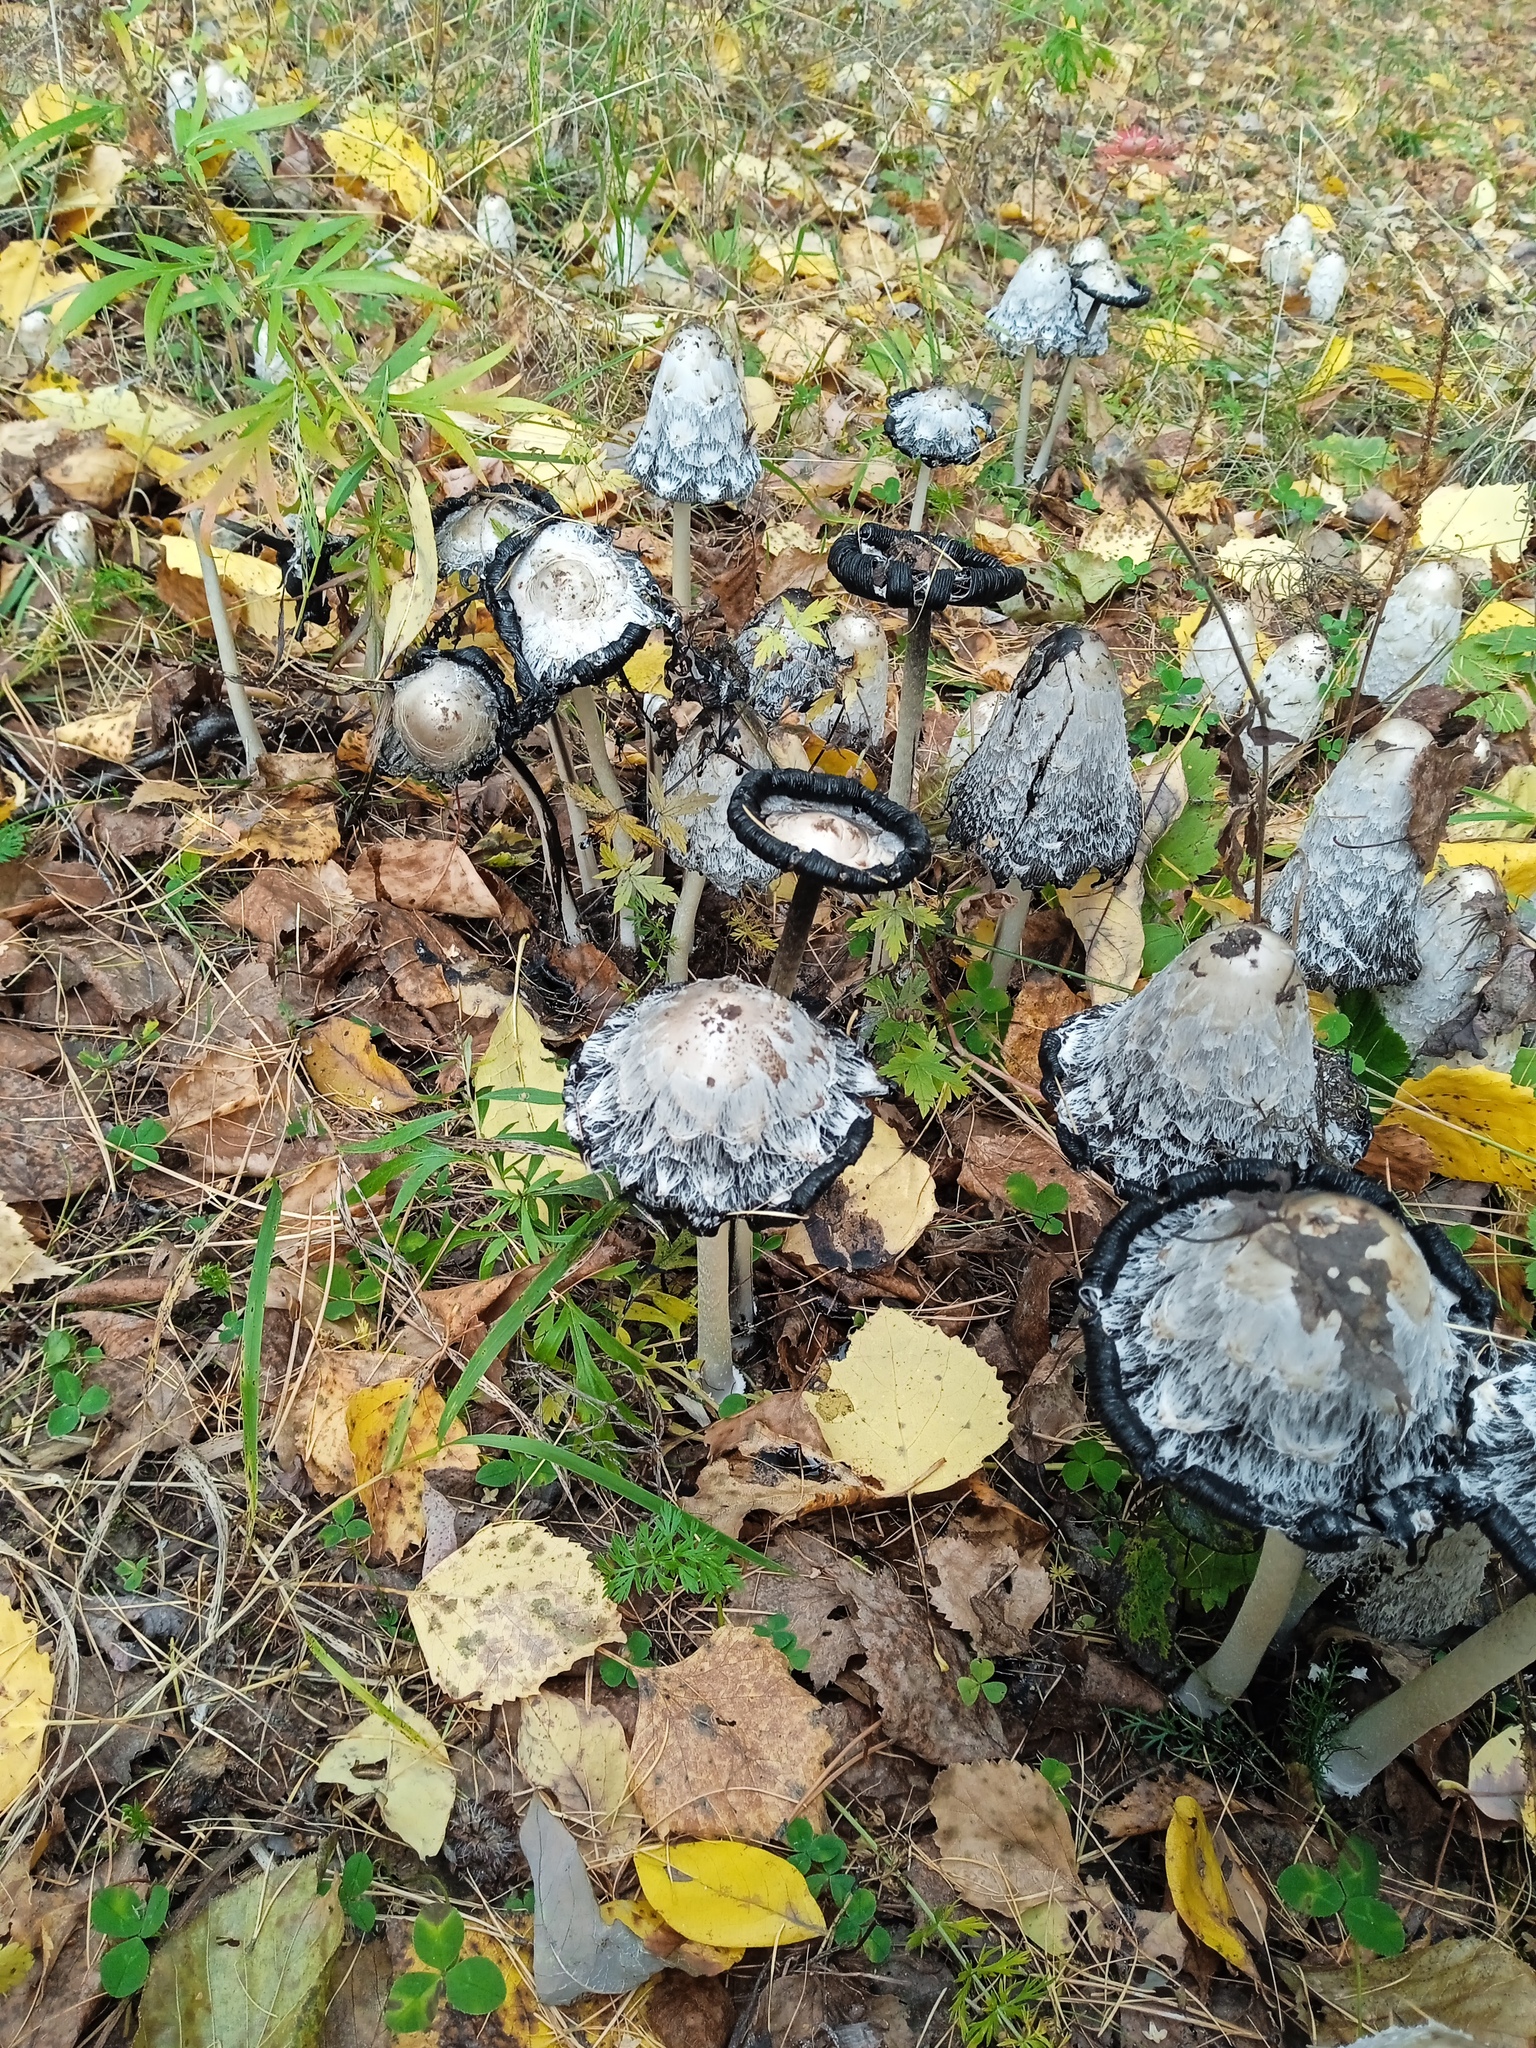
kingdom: Fungi
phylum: Basidiomycota
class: Agaricomycetes
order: Agaricales
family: Agaricaceae
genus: Coprinus
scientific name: Coprinus comatus
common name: Lawyer's wig
